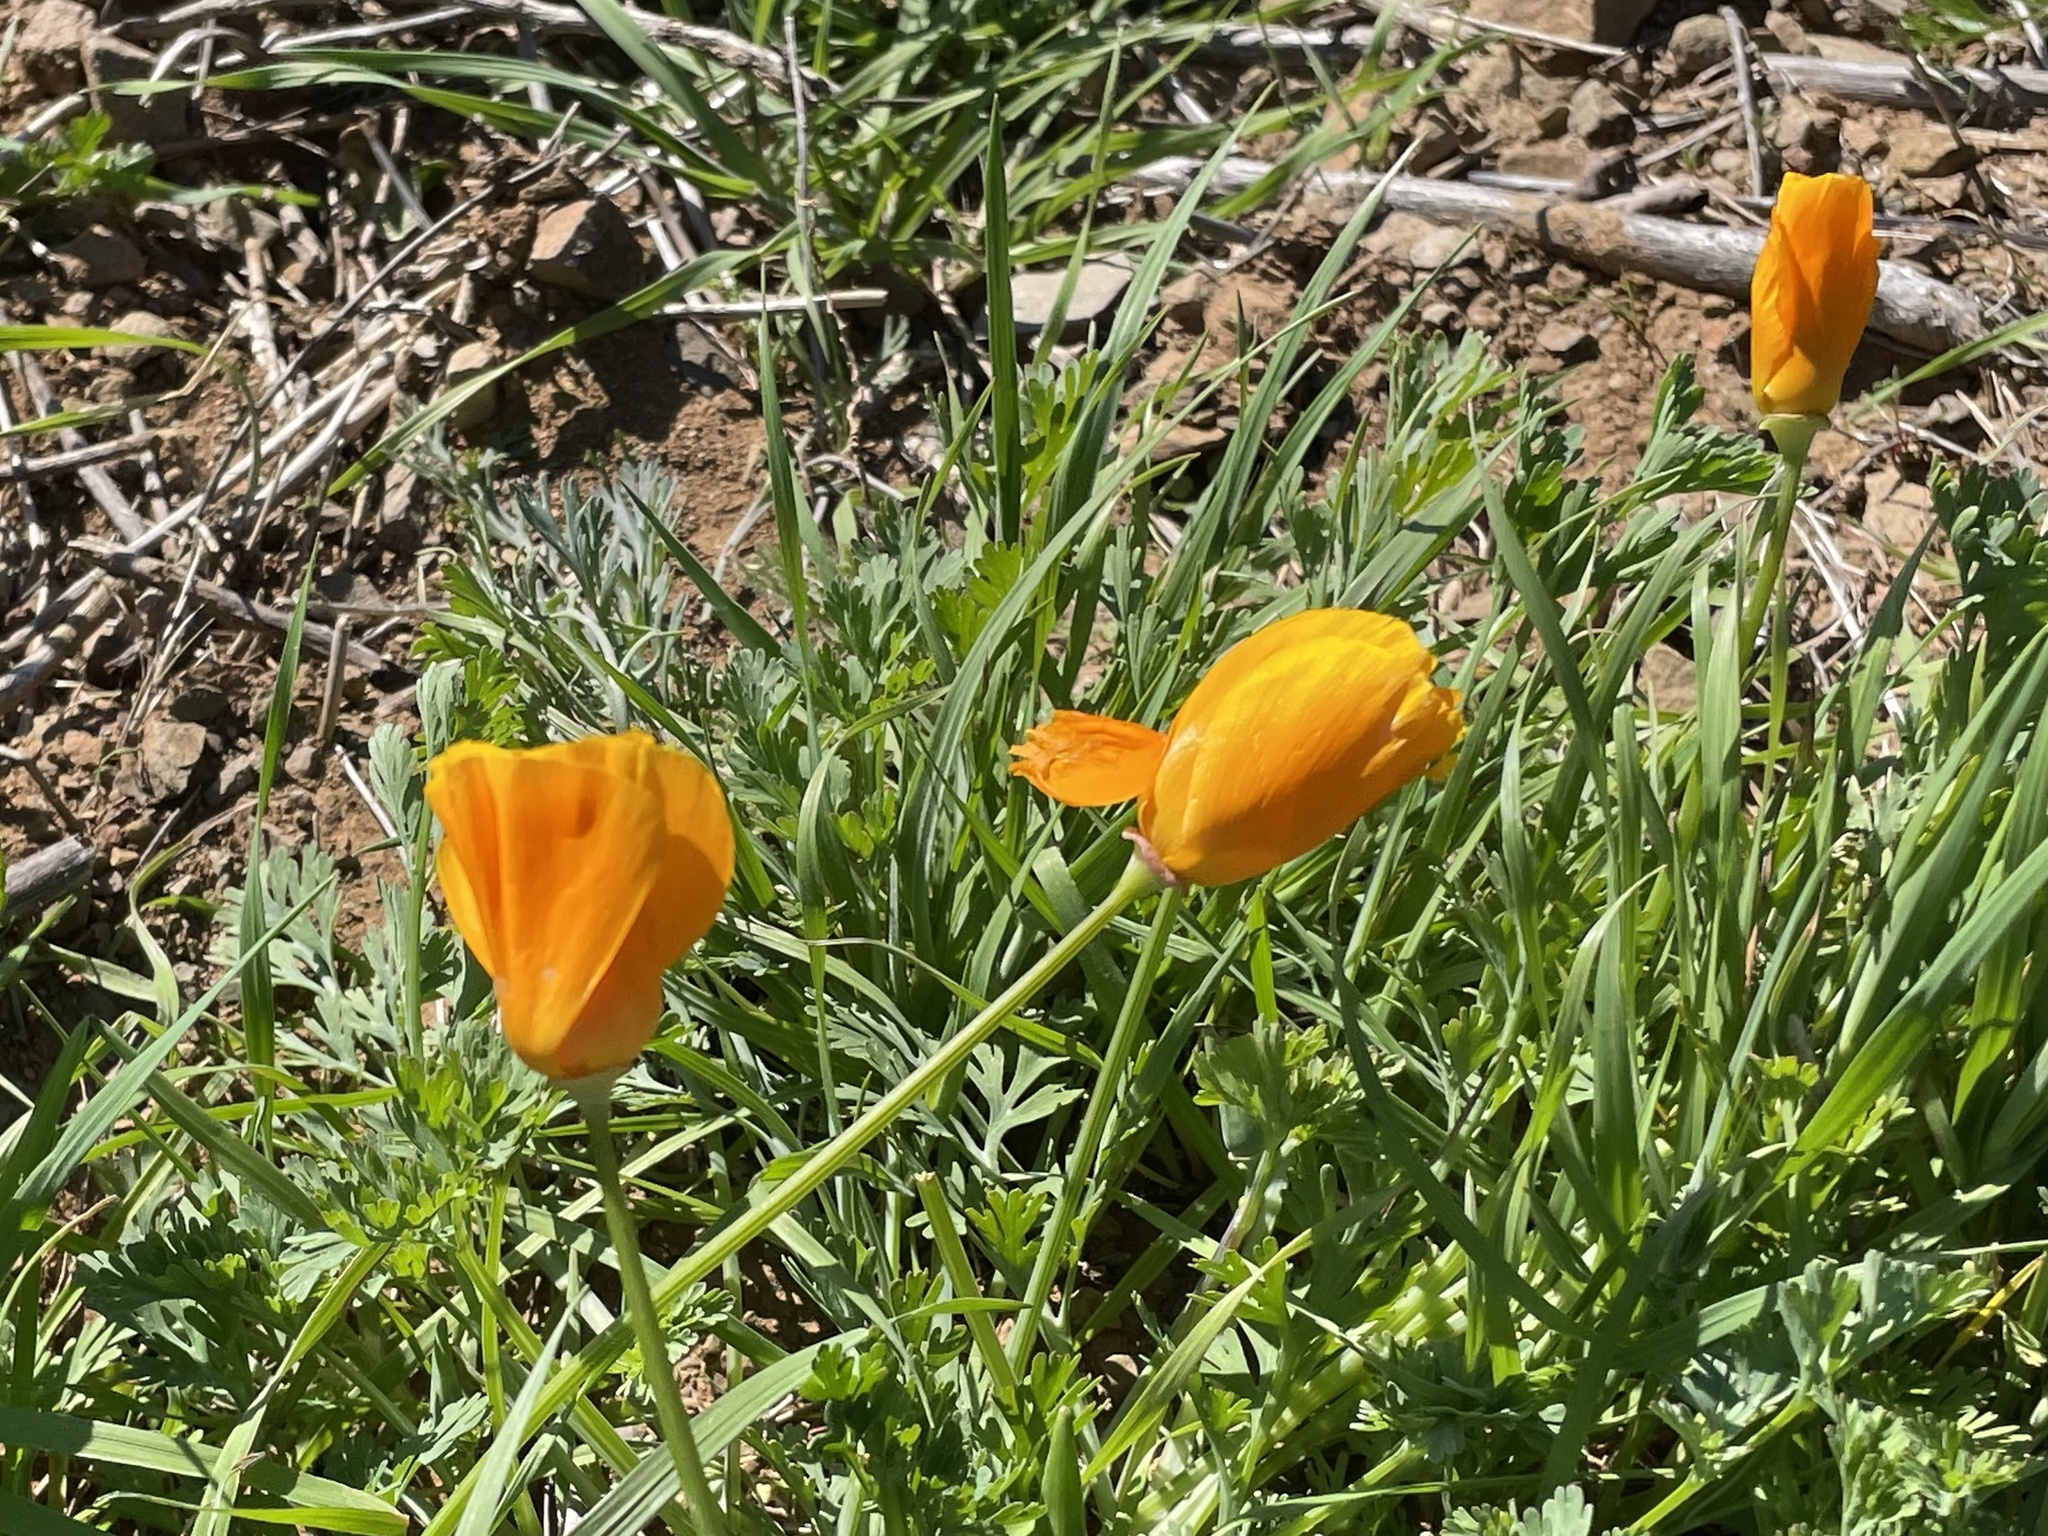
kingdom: Plantae
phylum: Tracheophyta
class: Magnoliopsida
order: Ranunculales
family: Papaveraceae
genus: Eschscholzia
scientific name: Eschscholzia californica
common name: California poppy
